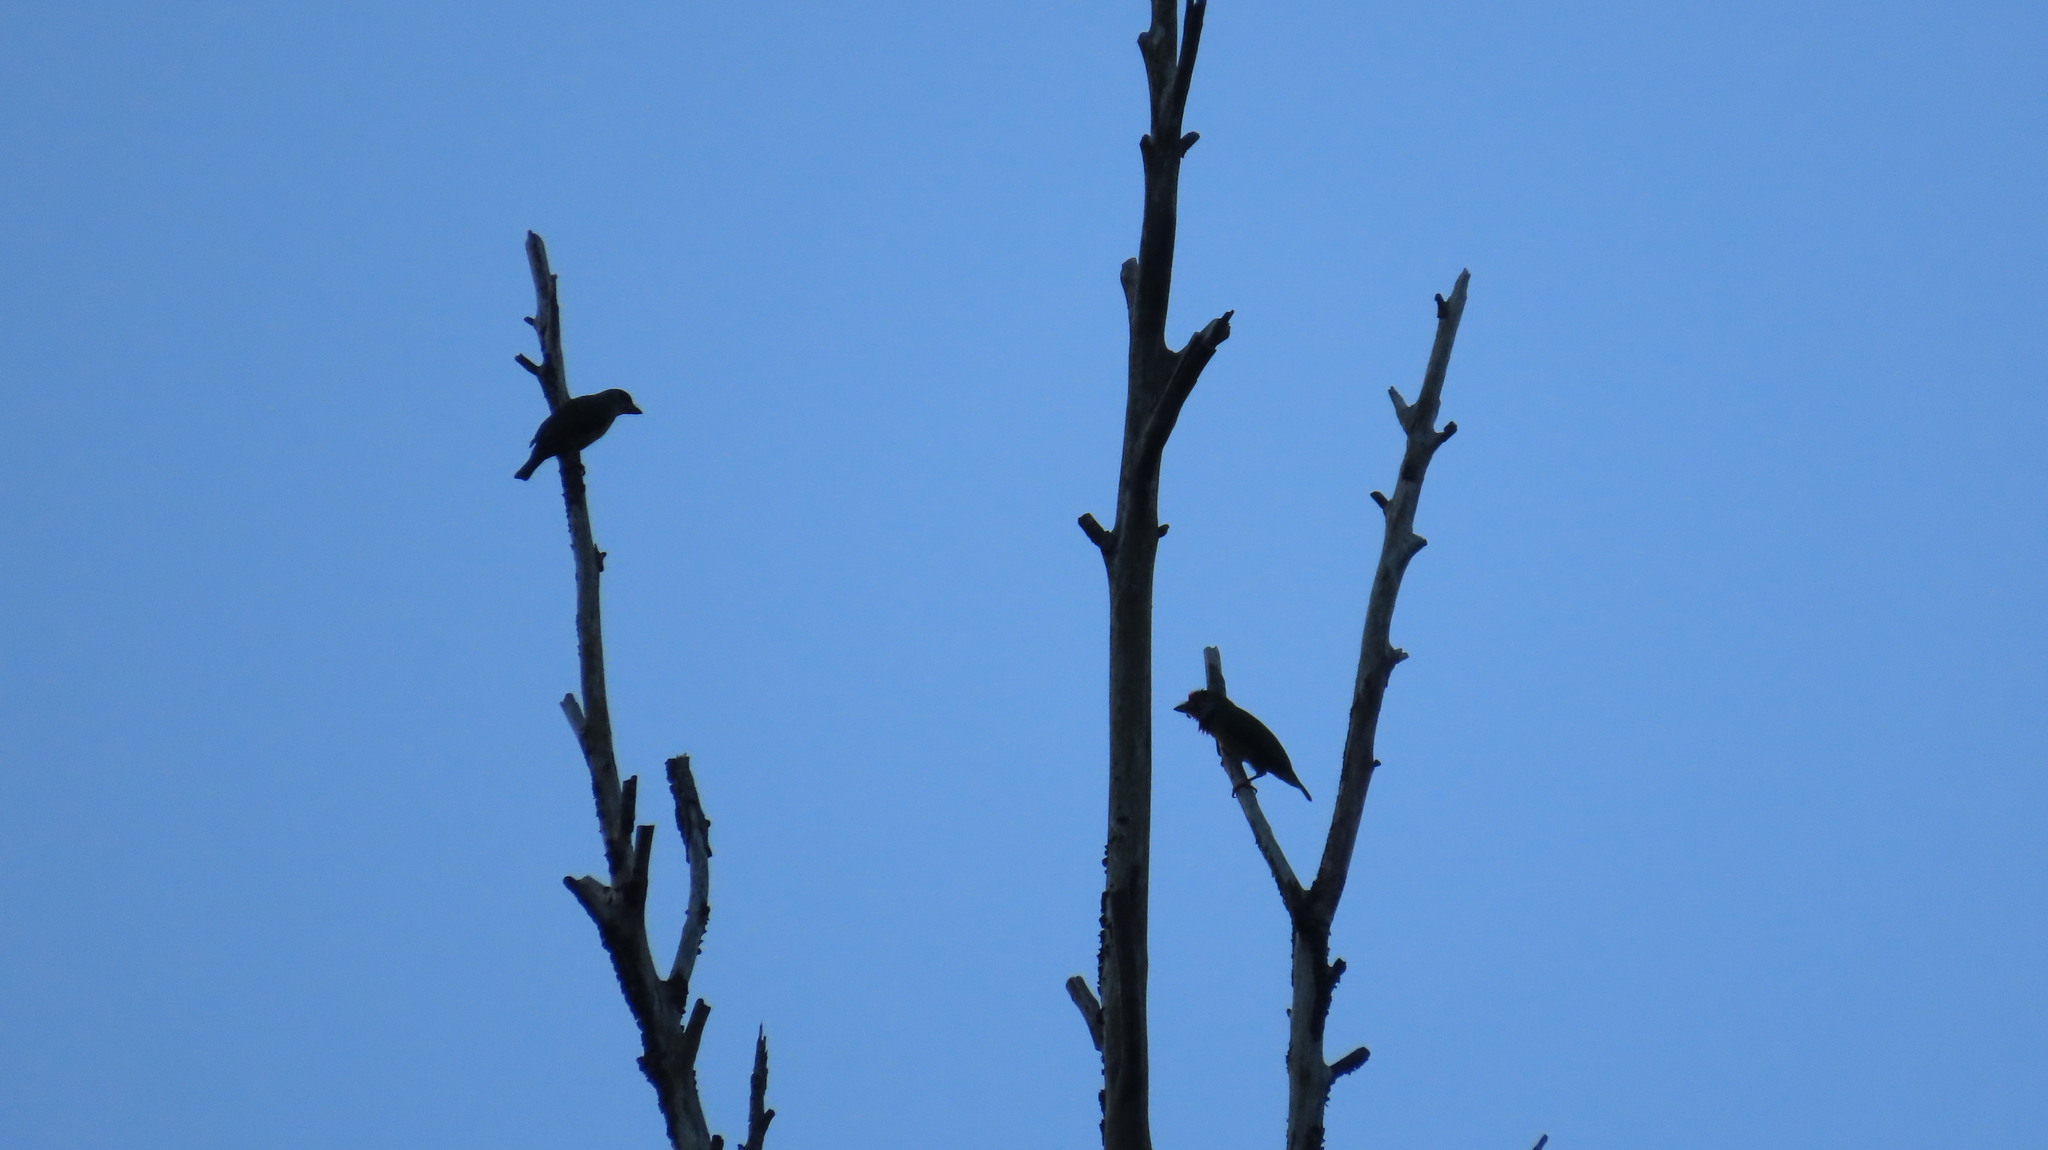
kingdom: Animalia
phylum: Chordata
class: Aves
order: Piciformes
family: Megalaimidae
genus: Psilopogon
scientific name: Psilopogon malabaricus
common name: Malabar barbet
